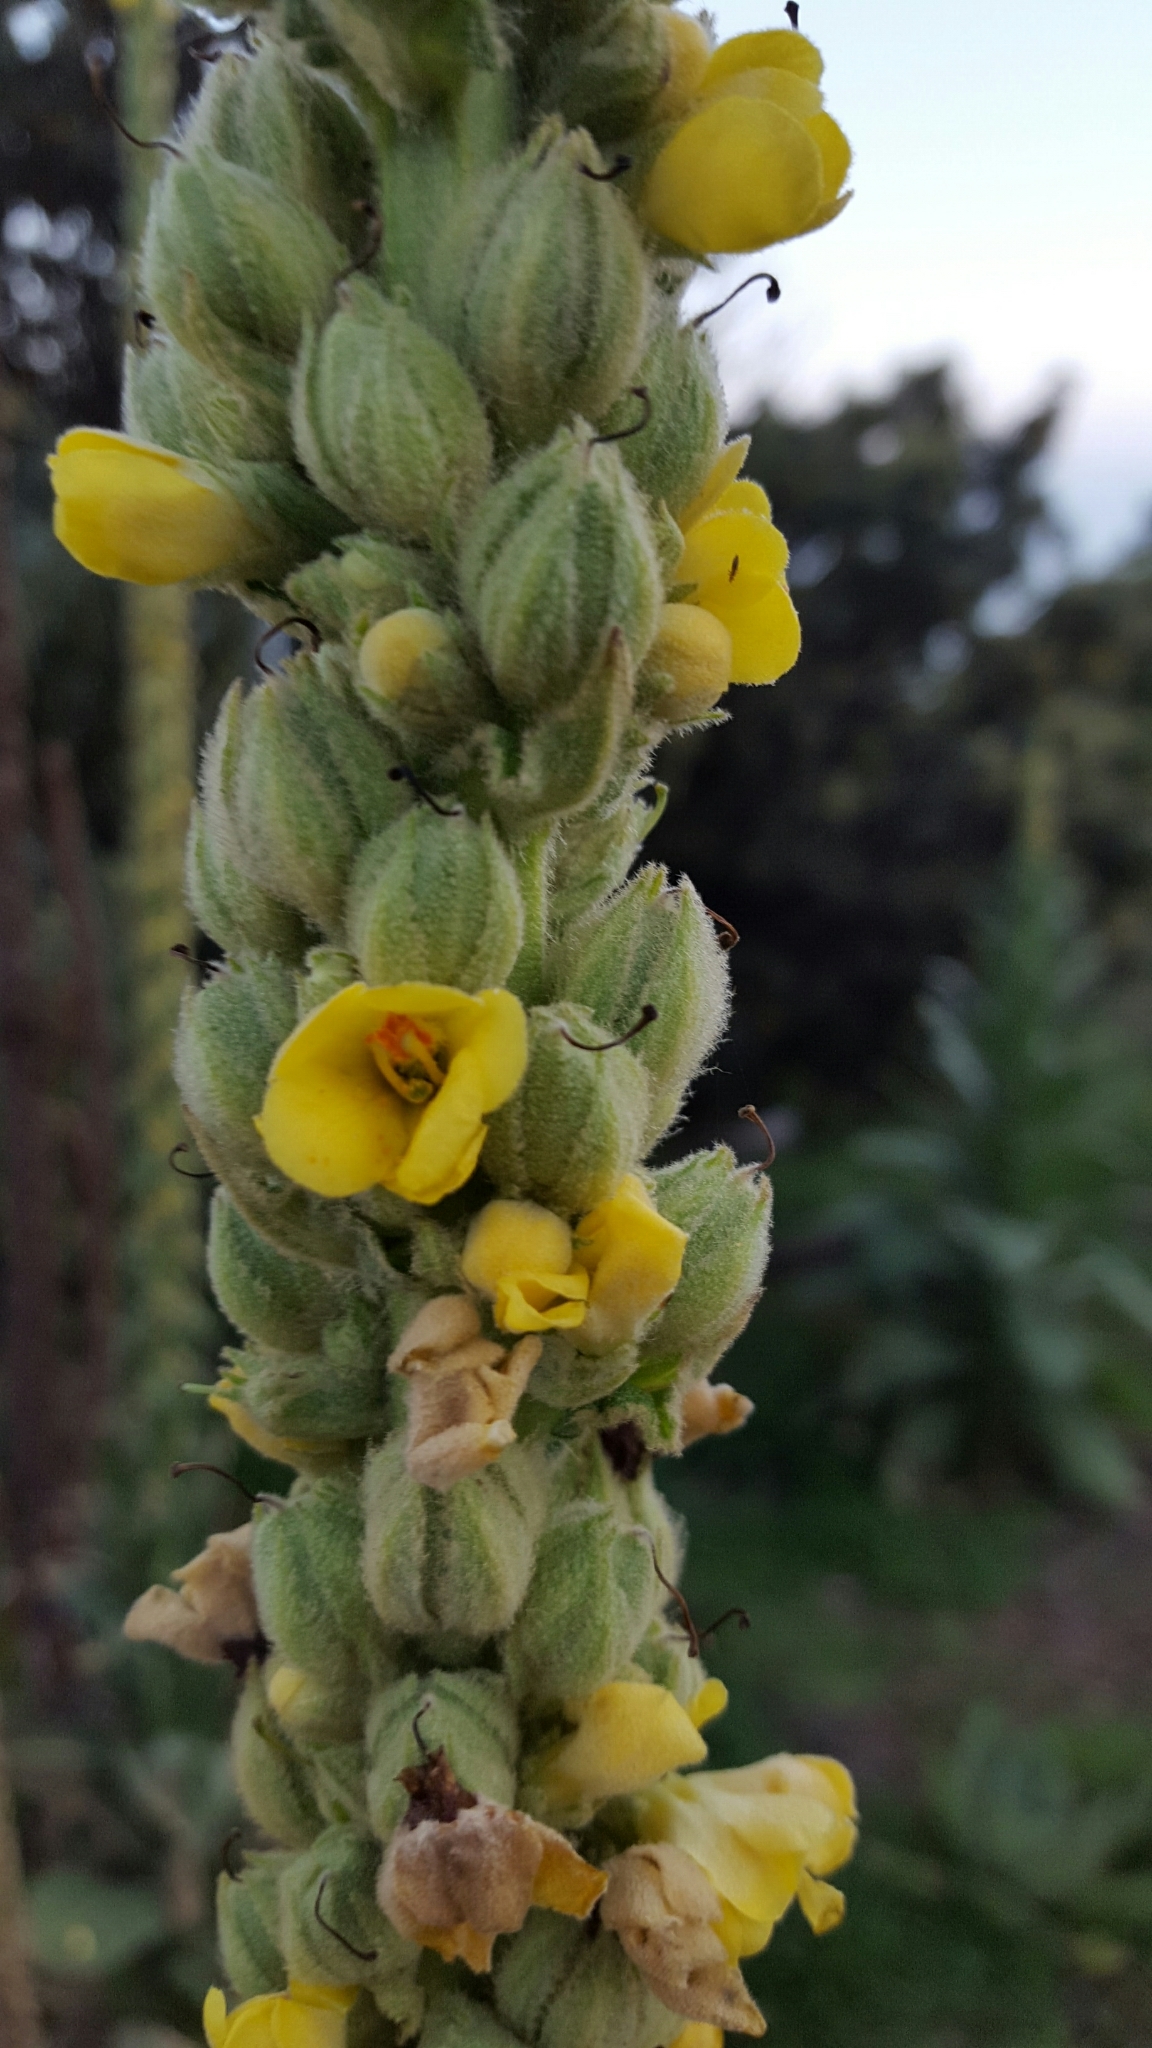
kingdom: Plantae
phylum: Tracheophyta
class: Magnoliopsida
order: Lamiales
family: Scrophulariaceae
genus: Verbascum
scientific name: Verbascum thapsus
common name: Common mullein
